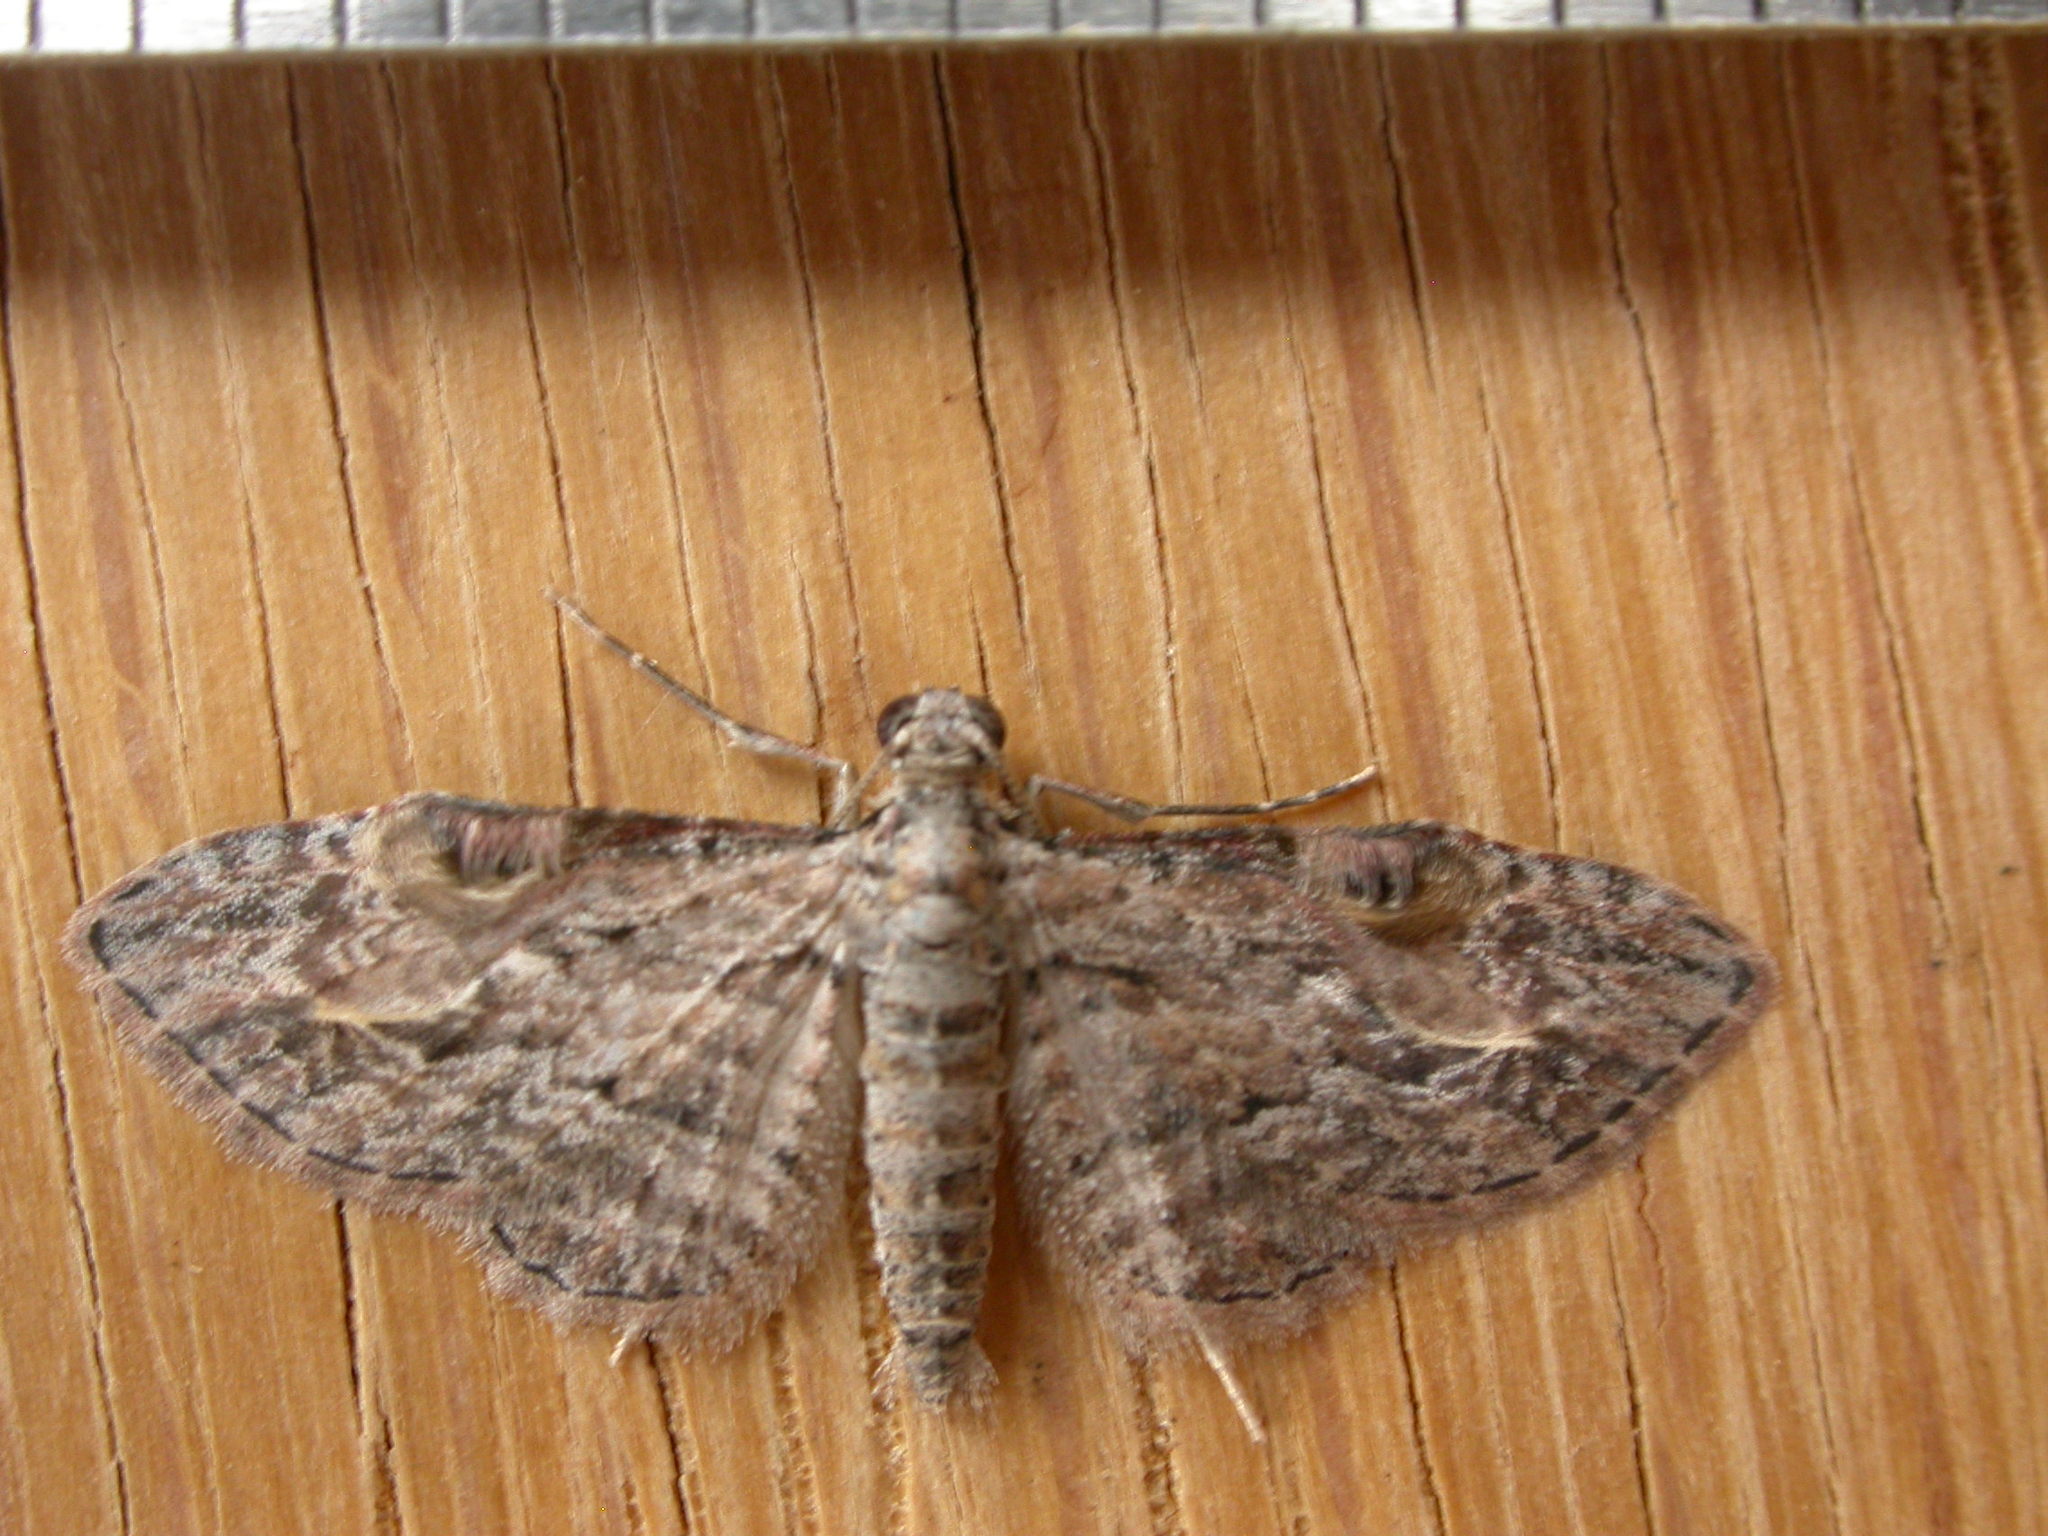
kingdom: Animalia
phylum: Arthropoda
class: Insecta
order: Lepidoptera
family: Geometridae
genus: Chloroclystis
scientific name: Chloroclystis insigillata
